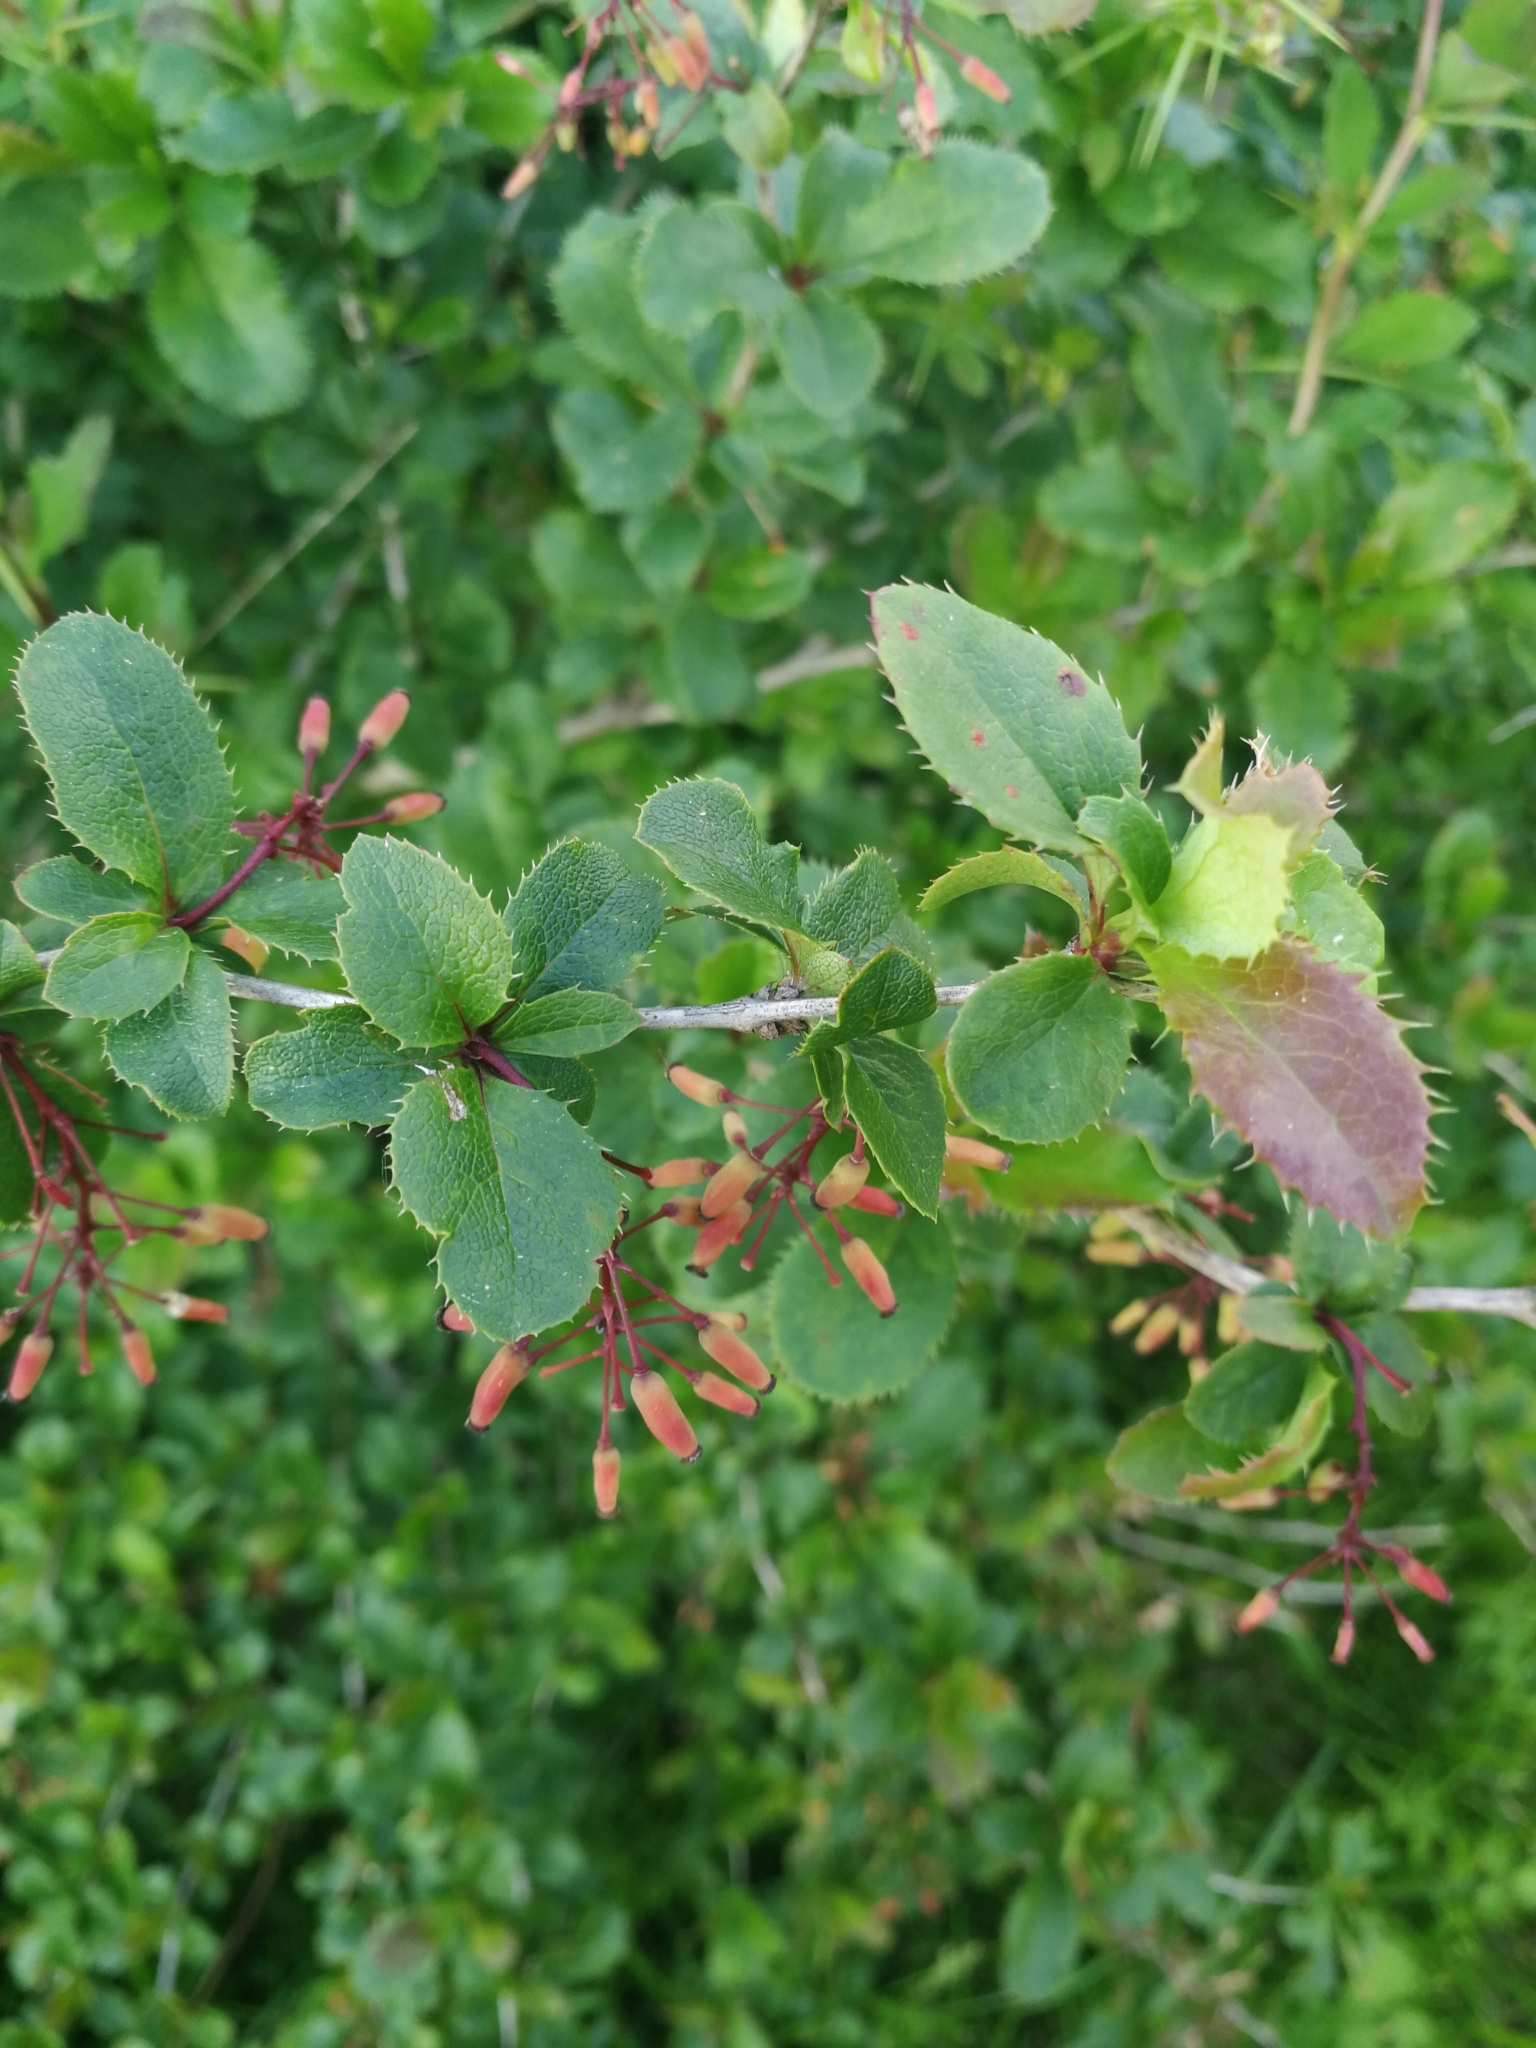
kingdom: Plantae
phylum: Tracheophyta
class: Magnoliopsida
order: Ranunculales
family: Berberidaceae
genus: Berberis
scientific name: Berberis vulgaris
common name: Barberry
